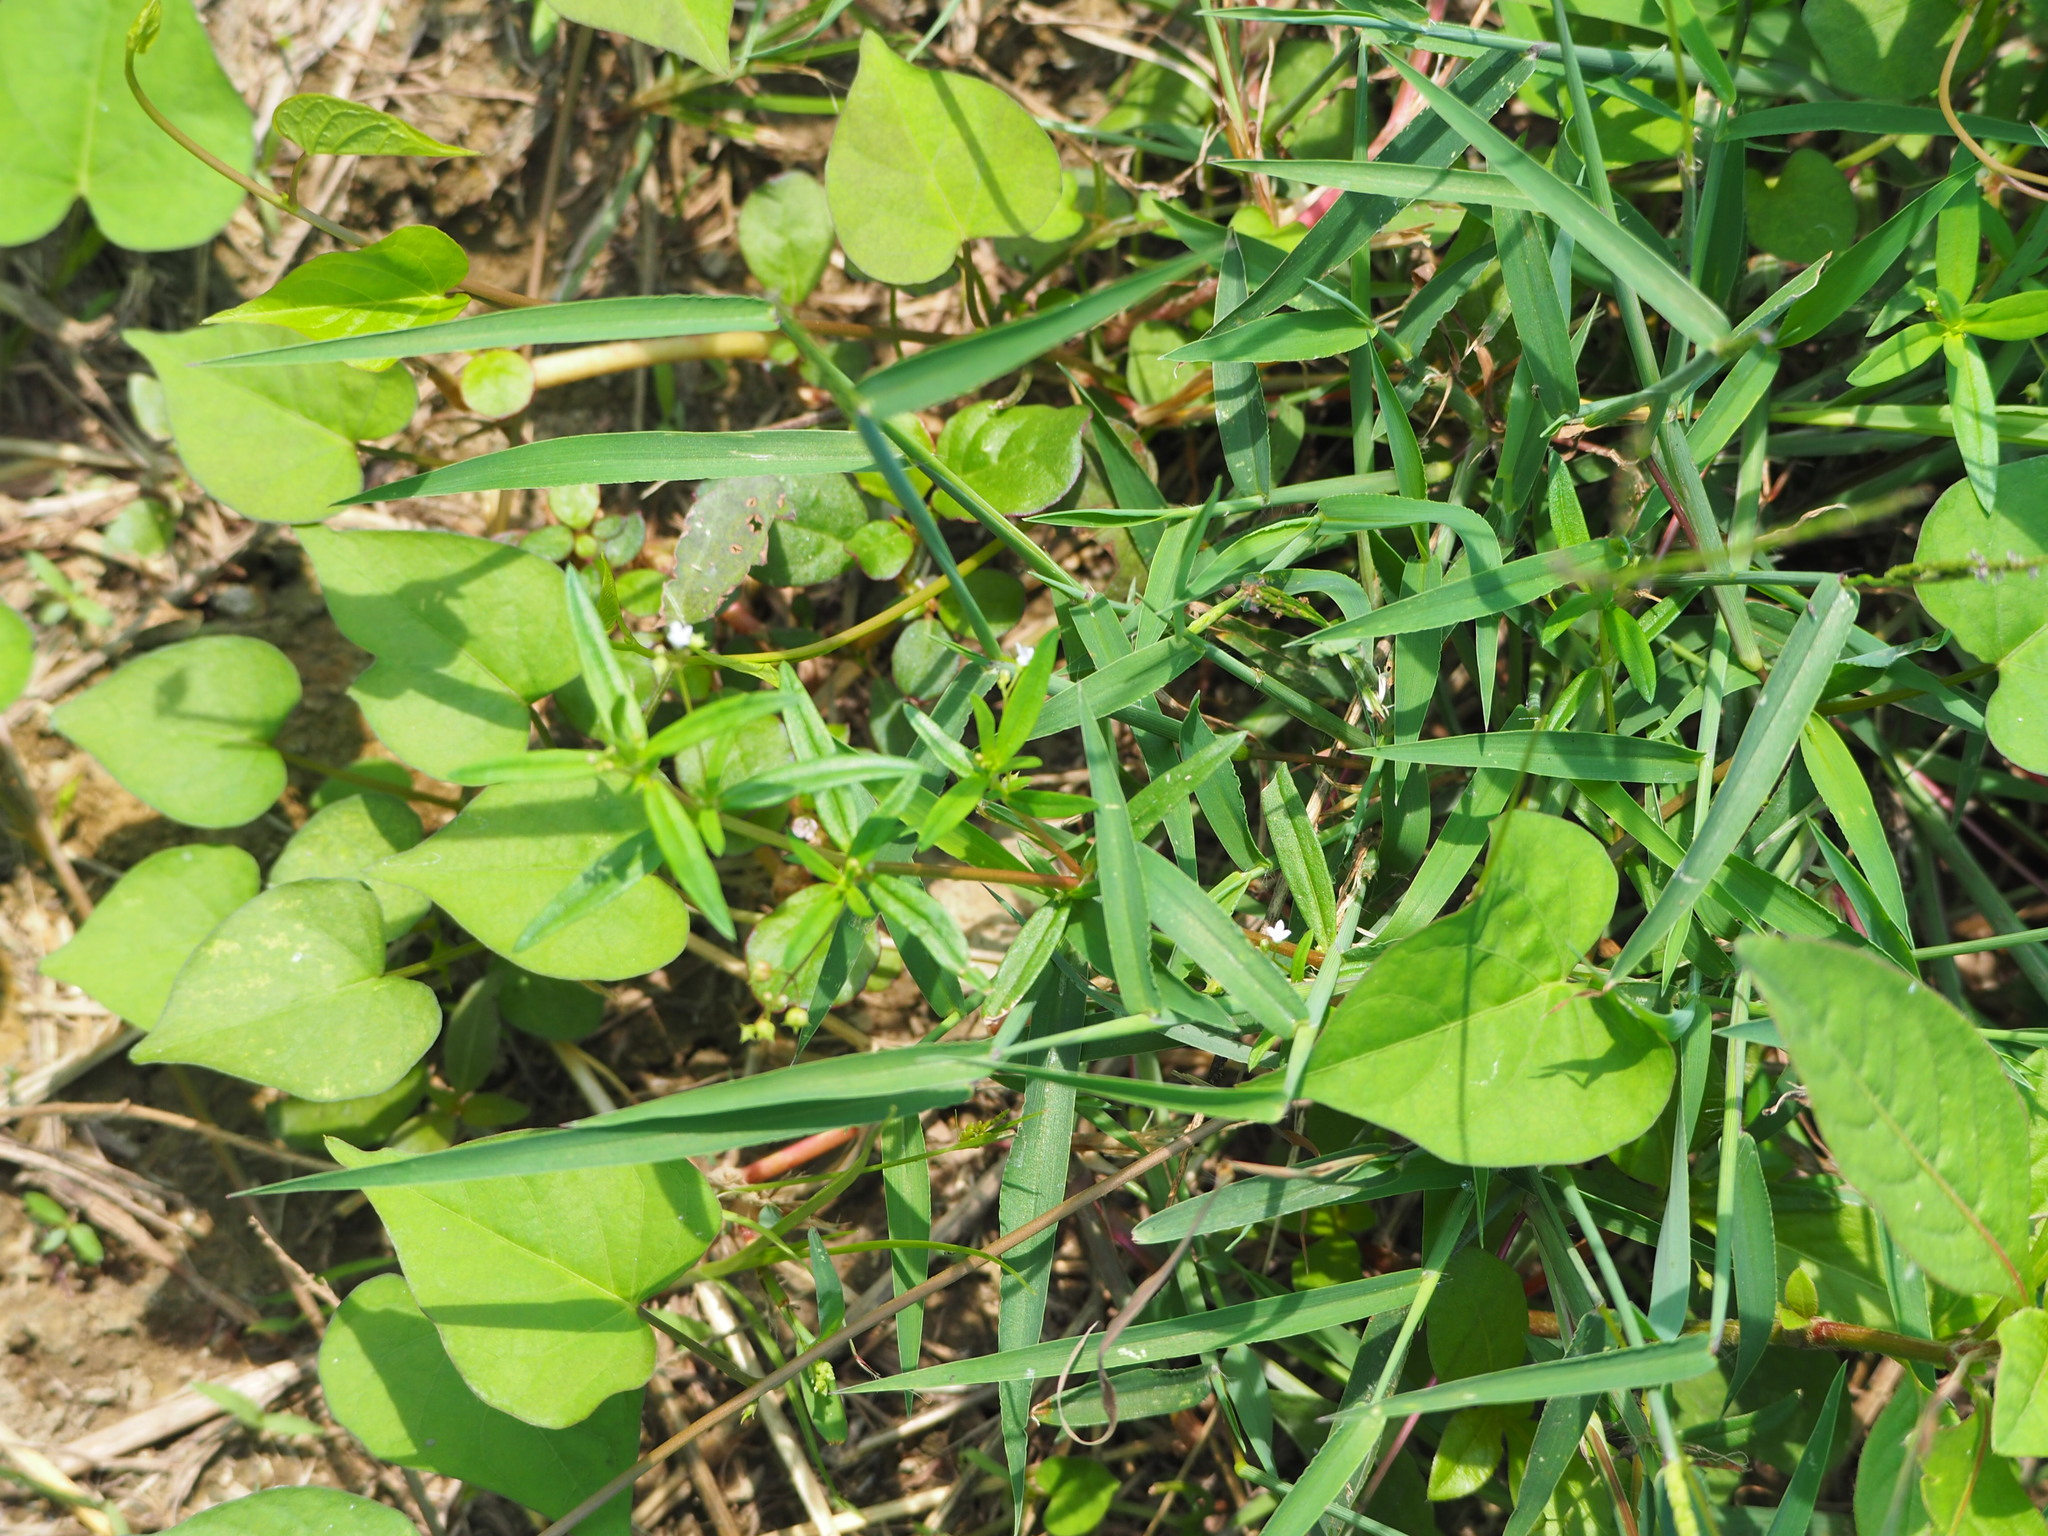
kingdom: Plantae
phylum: Tracheophyta
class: Magnoliopsida
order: Gentianales
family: Rubiaceae
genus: Oldenlandia
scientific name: Oldenlandia corymbosa
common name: Flat-top mille graines
